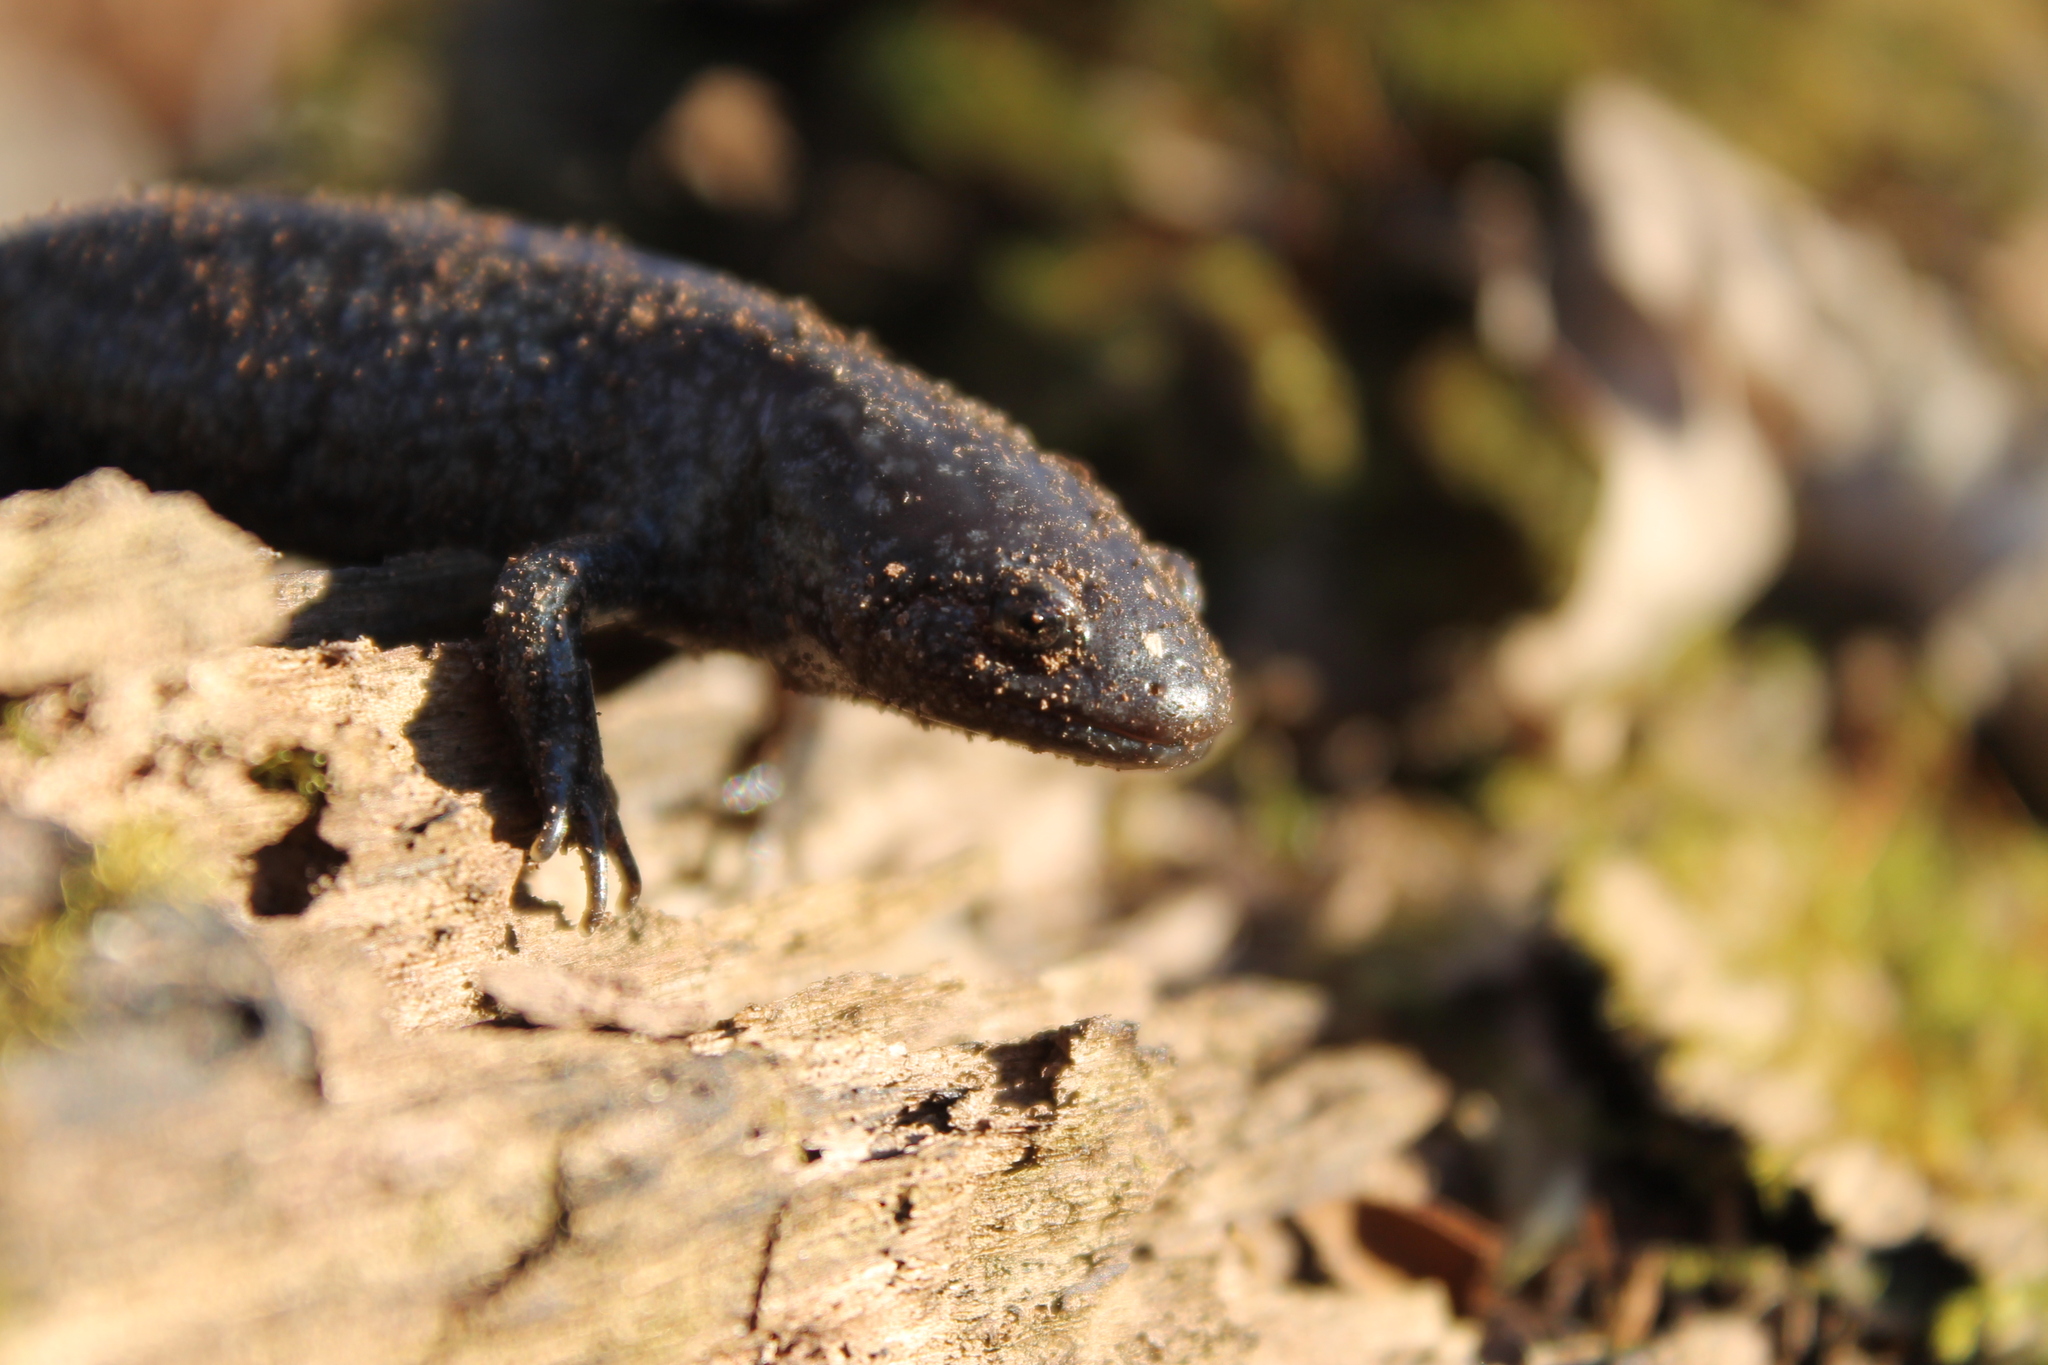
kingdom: Animalia
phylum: Chordata
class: Amphibia
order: Caudata
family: Ambystomatidae
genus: Ambystoma
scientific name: Ambystoma talpoideum
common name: Mole salamander
